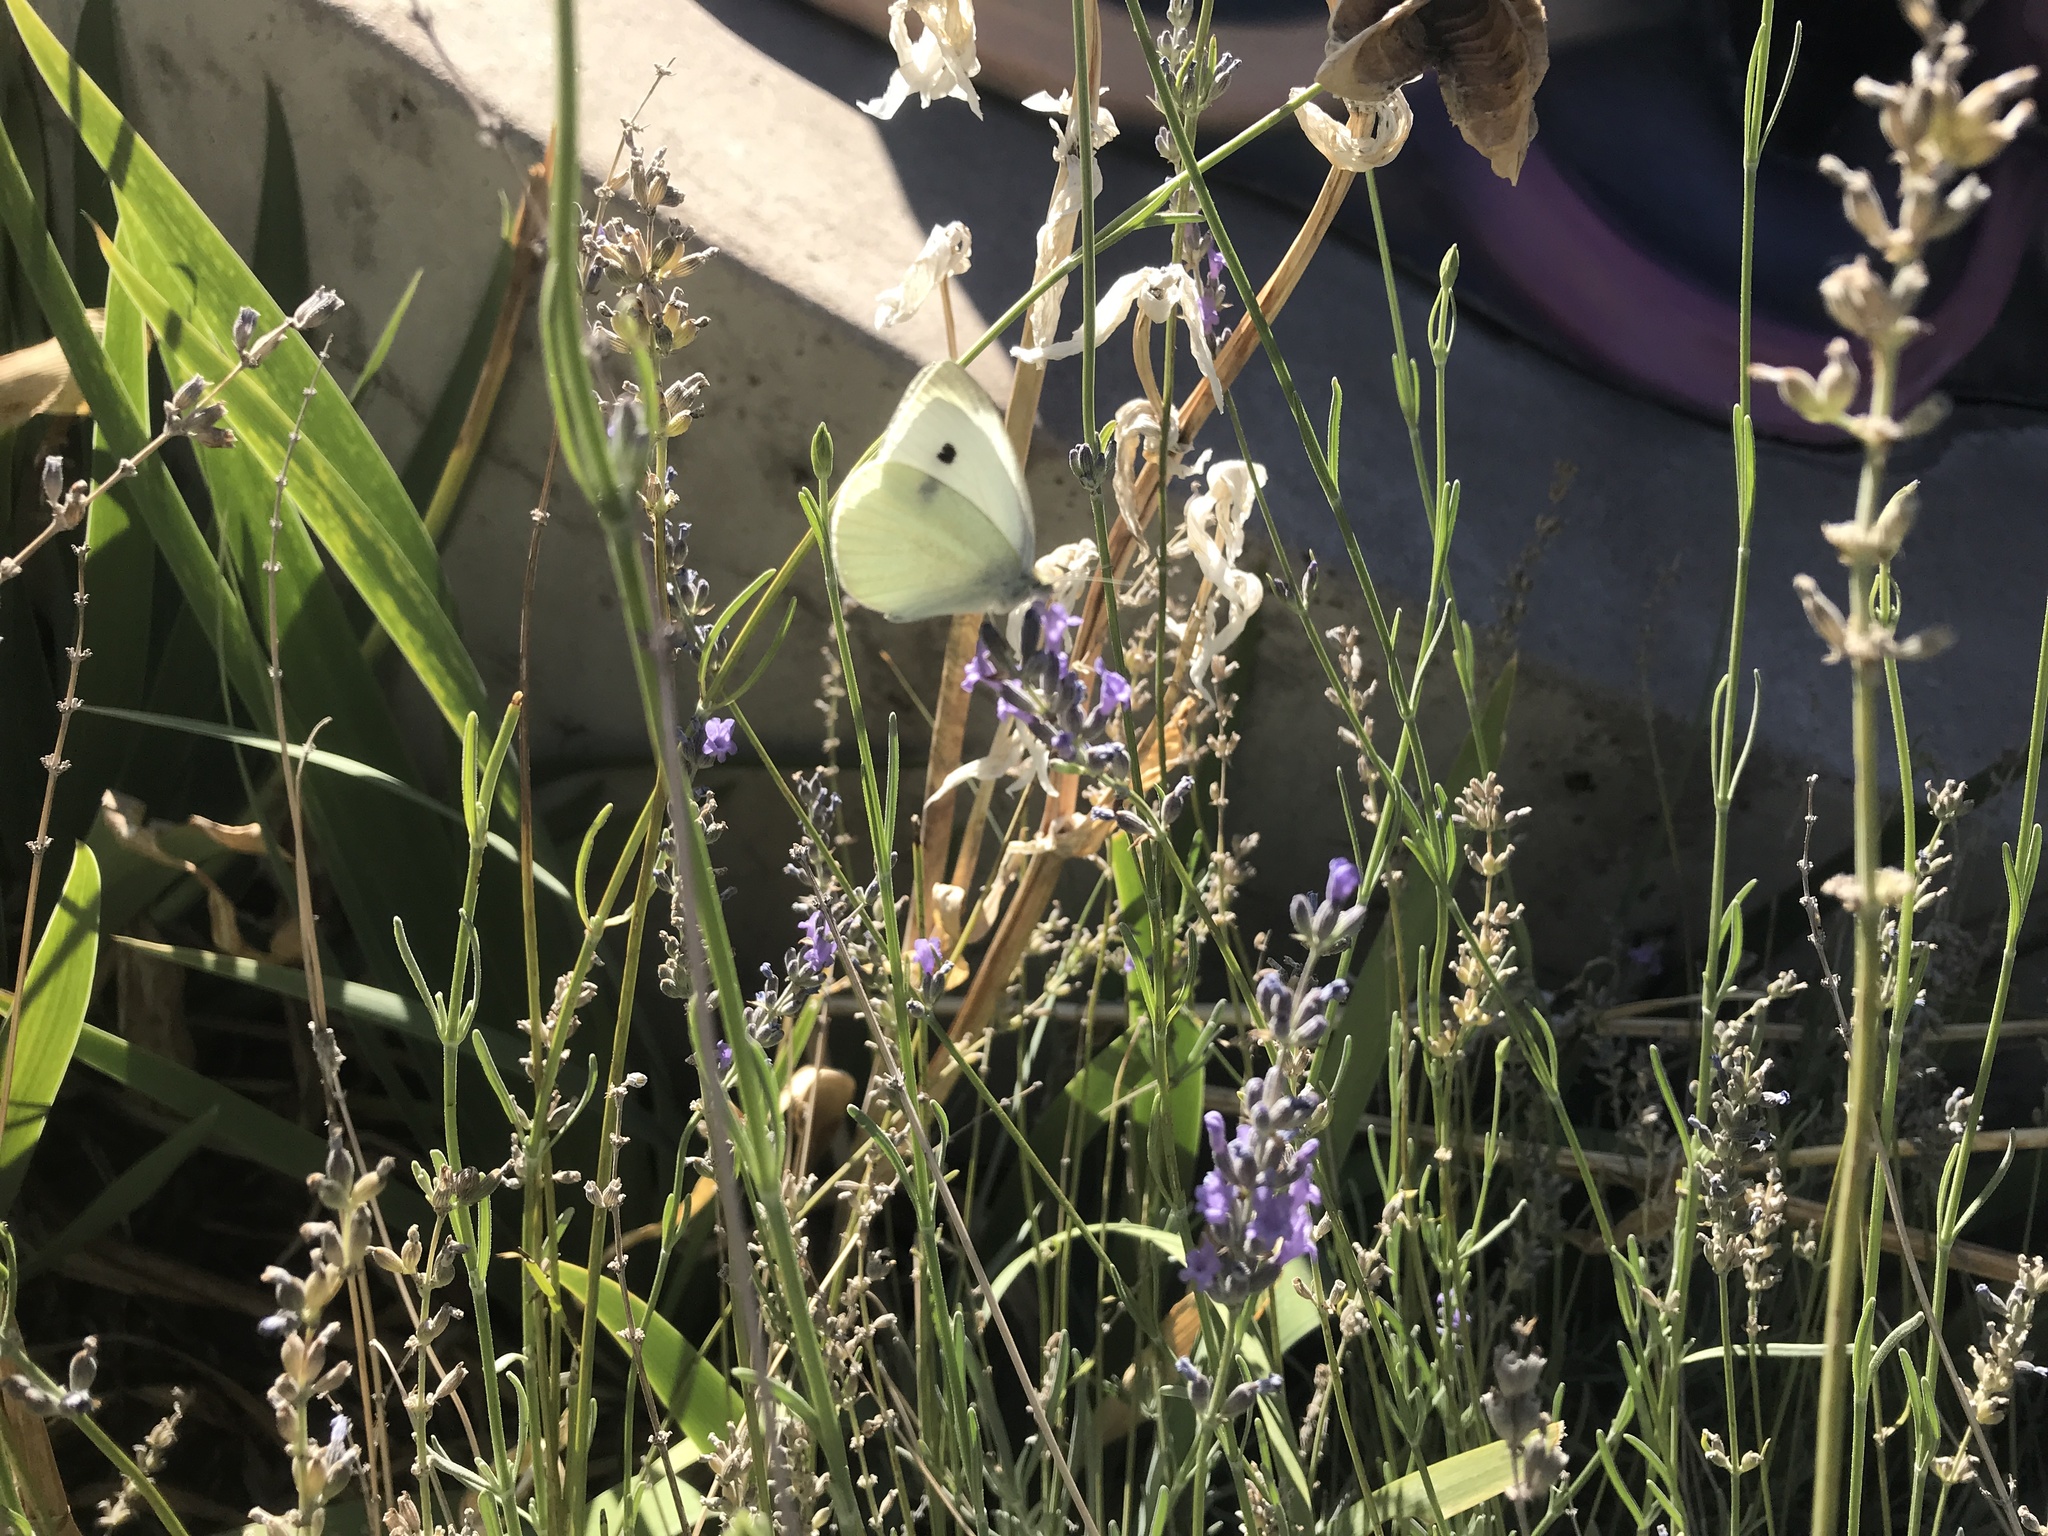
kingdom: Animalia
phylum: Arthropoda
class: Insecta
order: Lepidoptera
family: Pieridae
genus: Pieris
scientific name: Pieris rapae
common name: Small white
